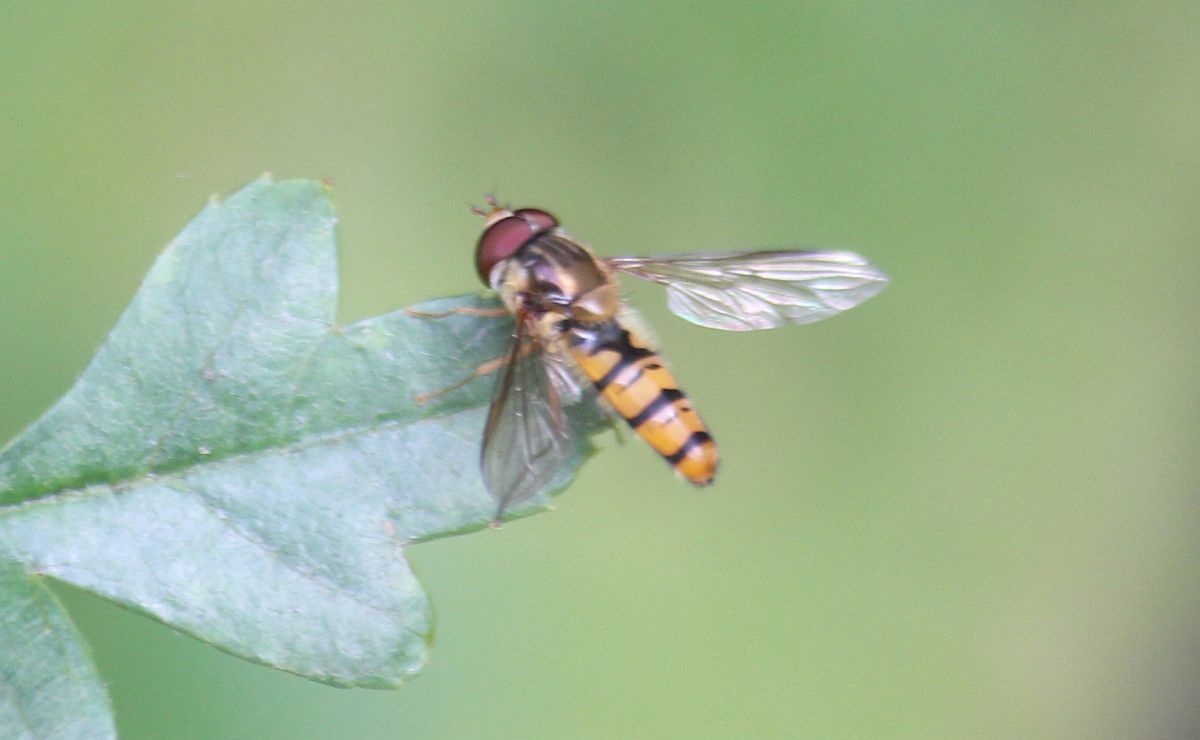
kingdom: Animalia
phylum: Arthropoda
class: Insecta
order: Diptera
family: Syrphidae
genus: Episyrphus
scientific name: Episyrphus balteatus
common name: Marmalade hoverfly
